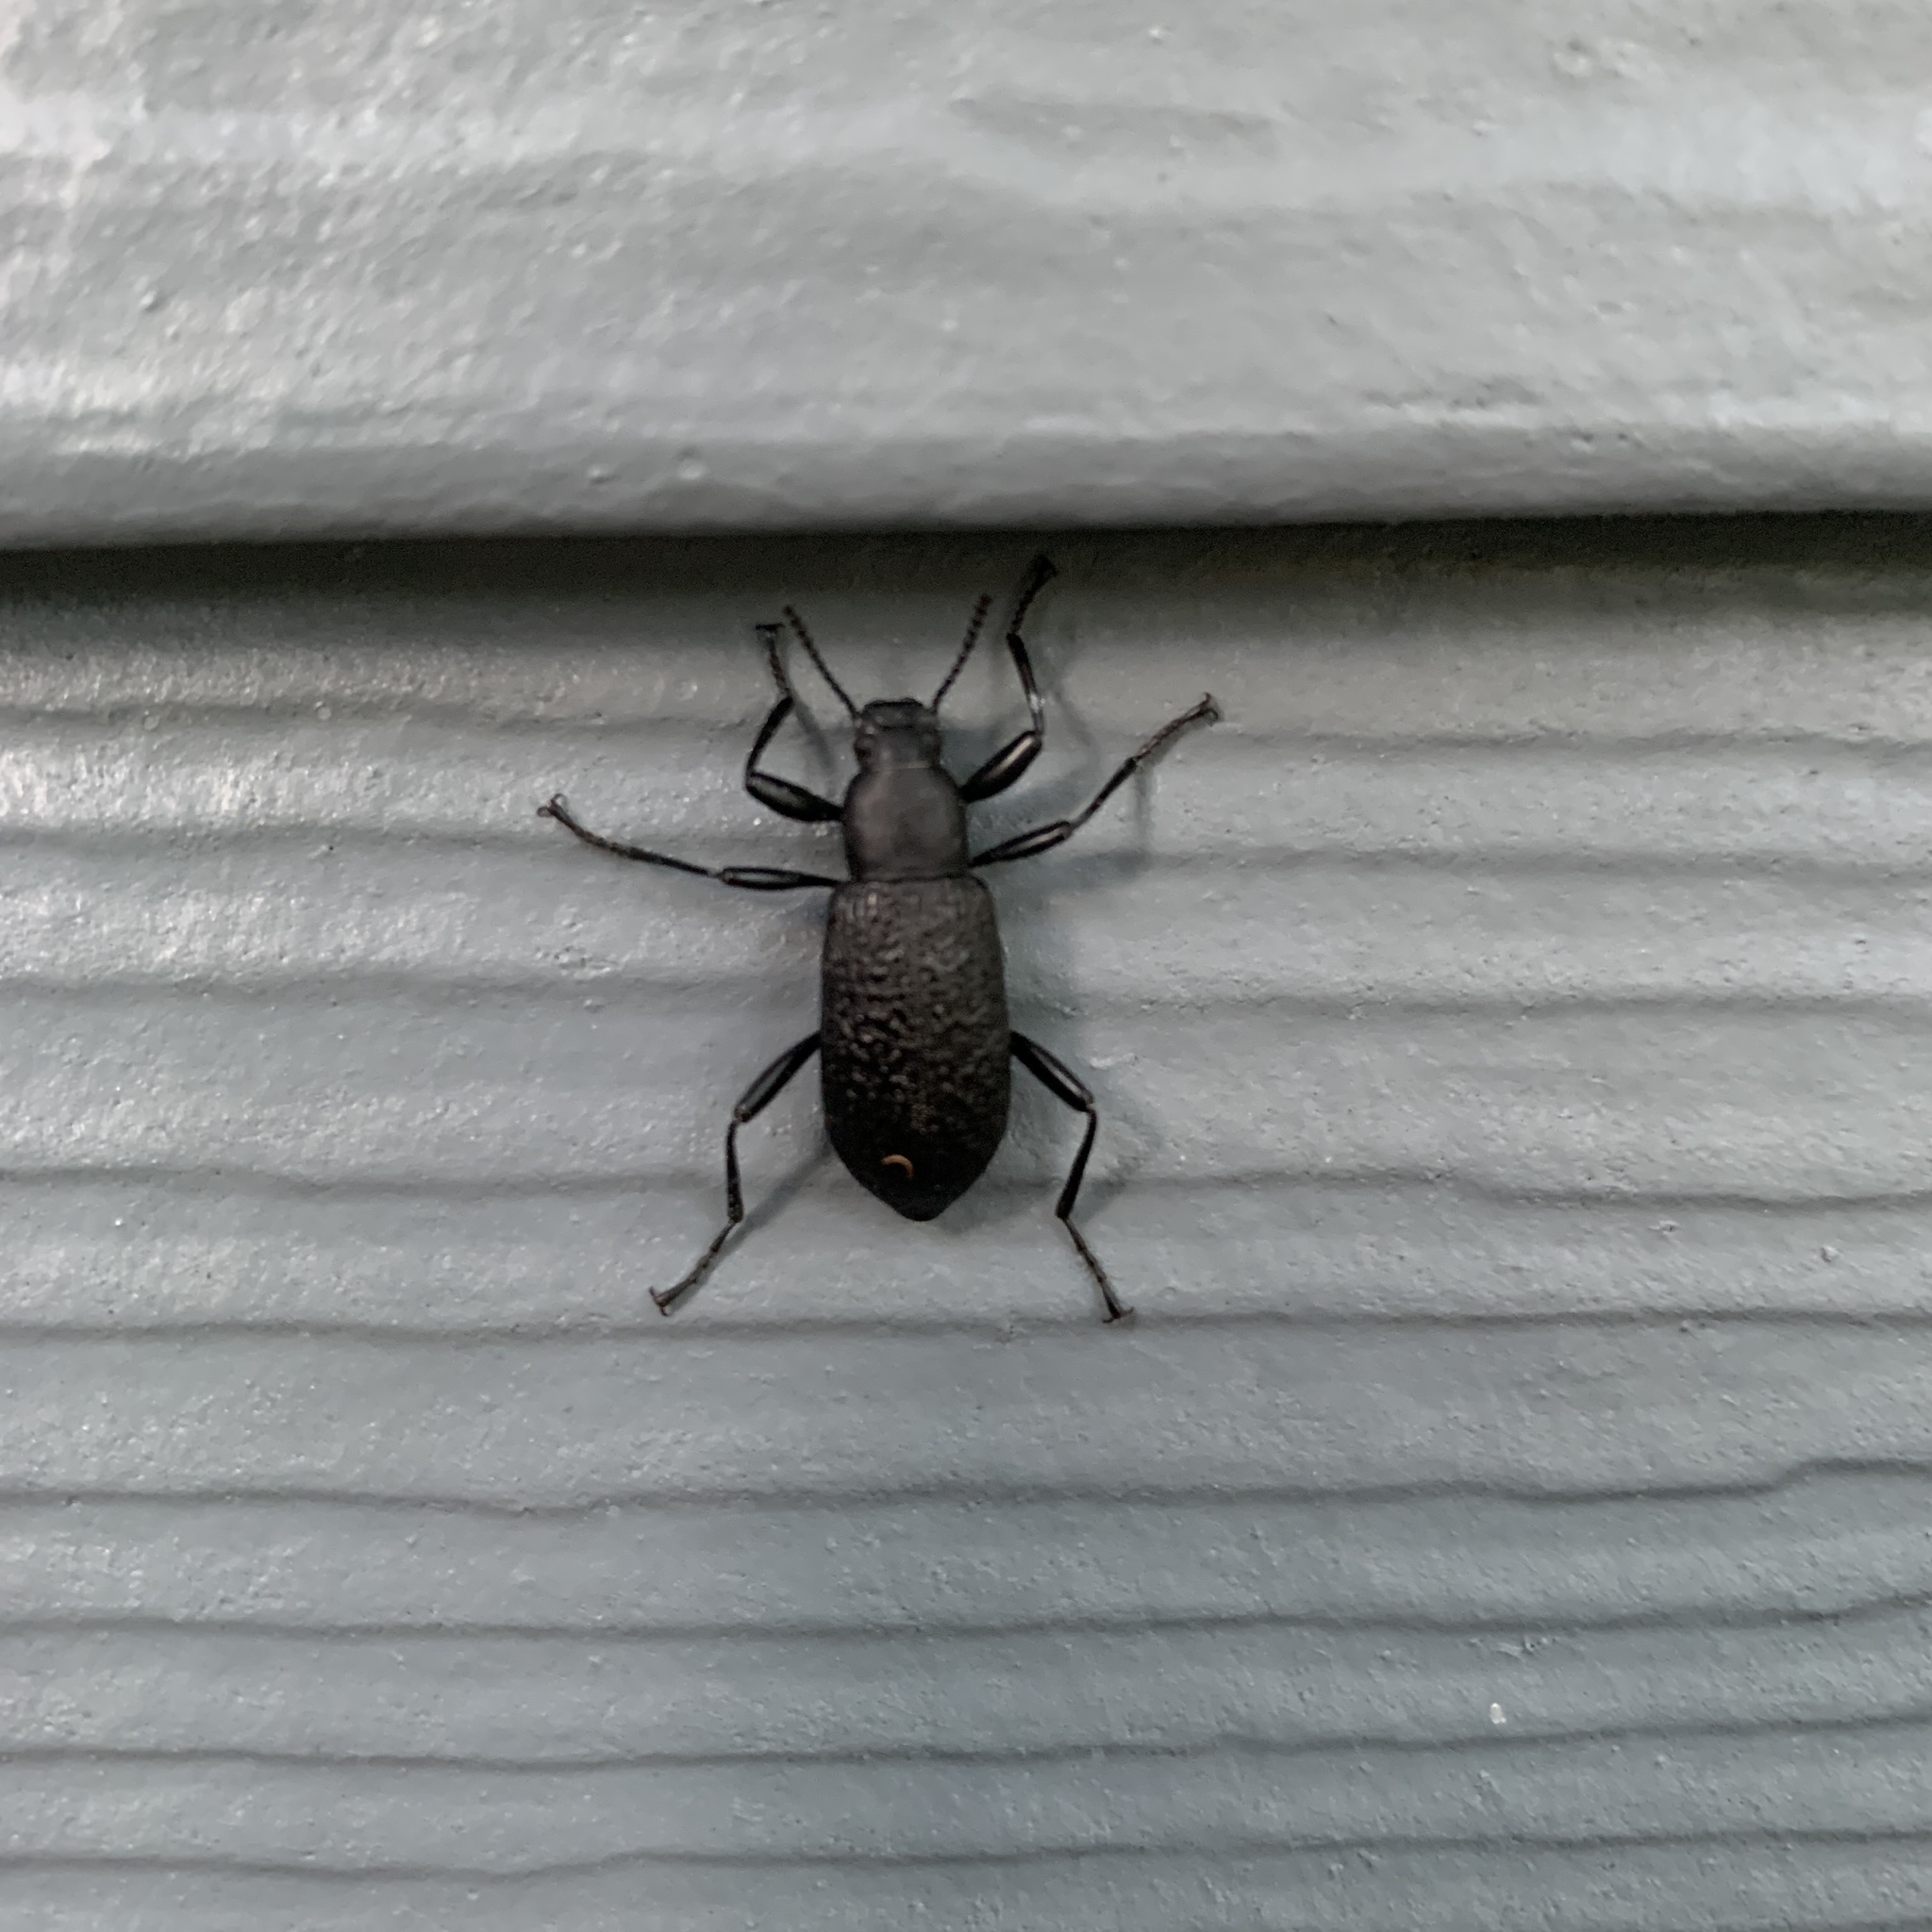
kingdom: Animalia
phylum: Arthropoda
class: Insecta
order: Coleoptera
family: Tenebrionidae
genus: Upis
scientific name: Upis ceramboides
